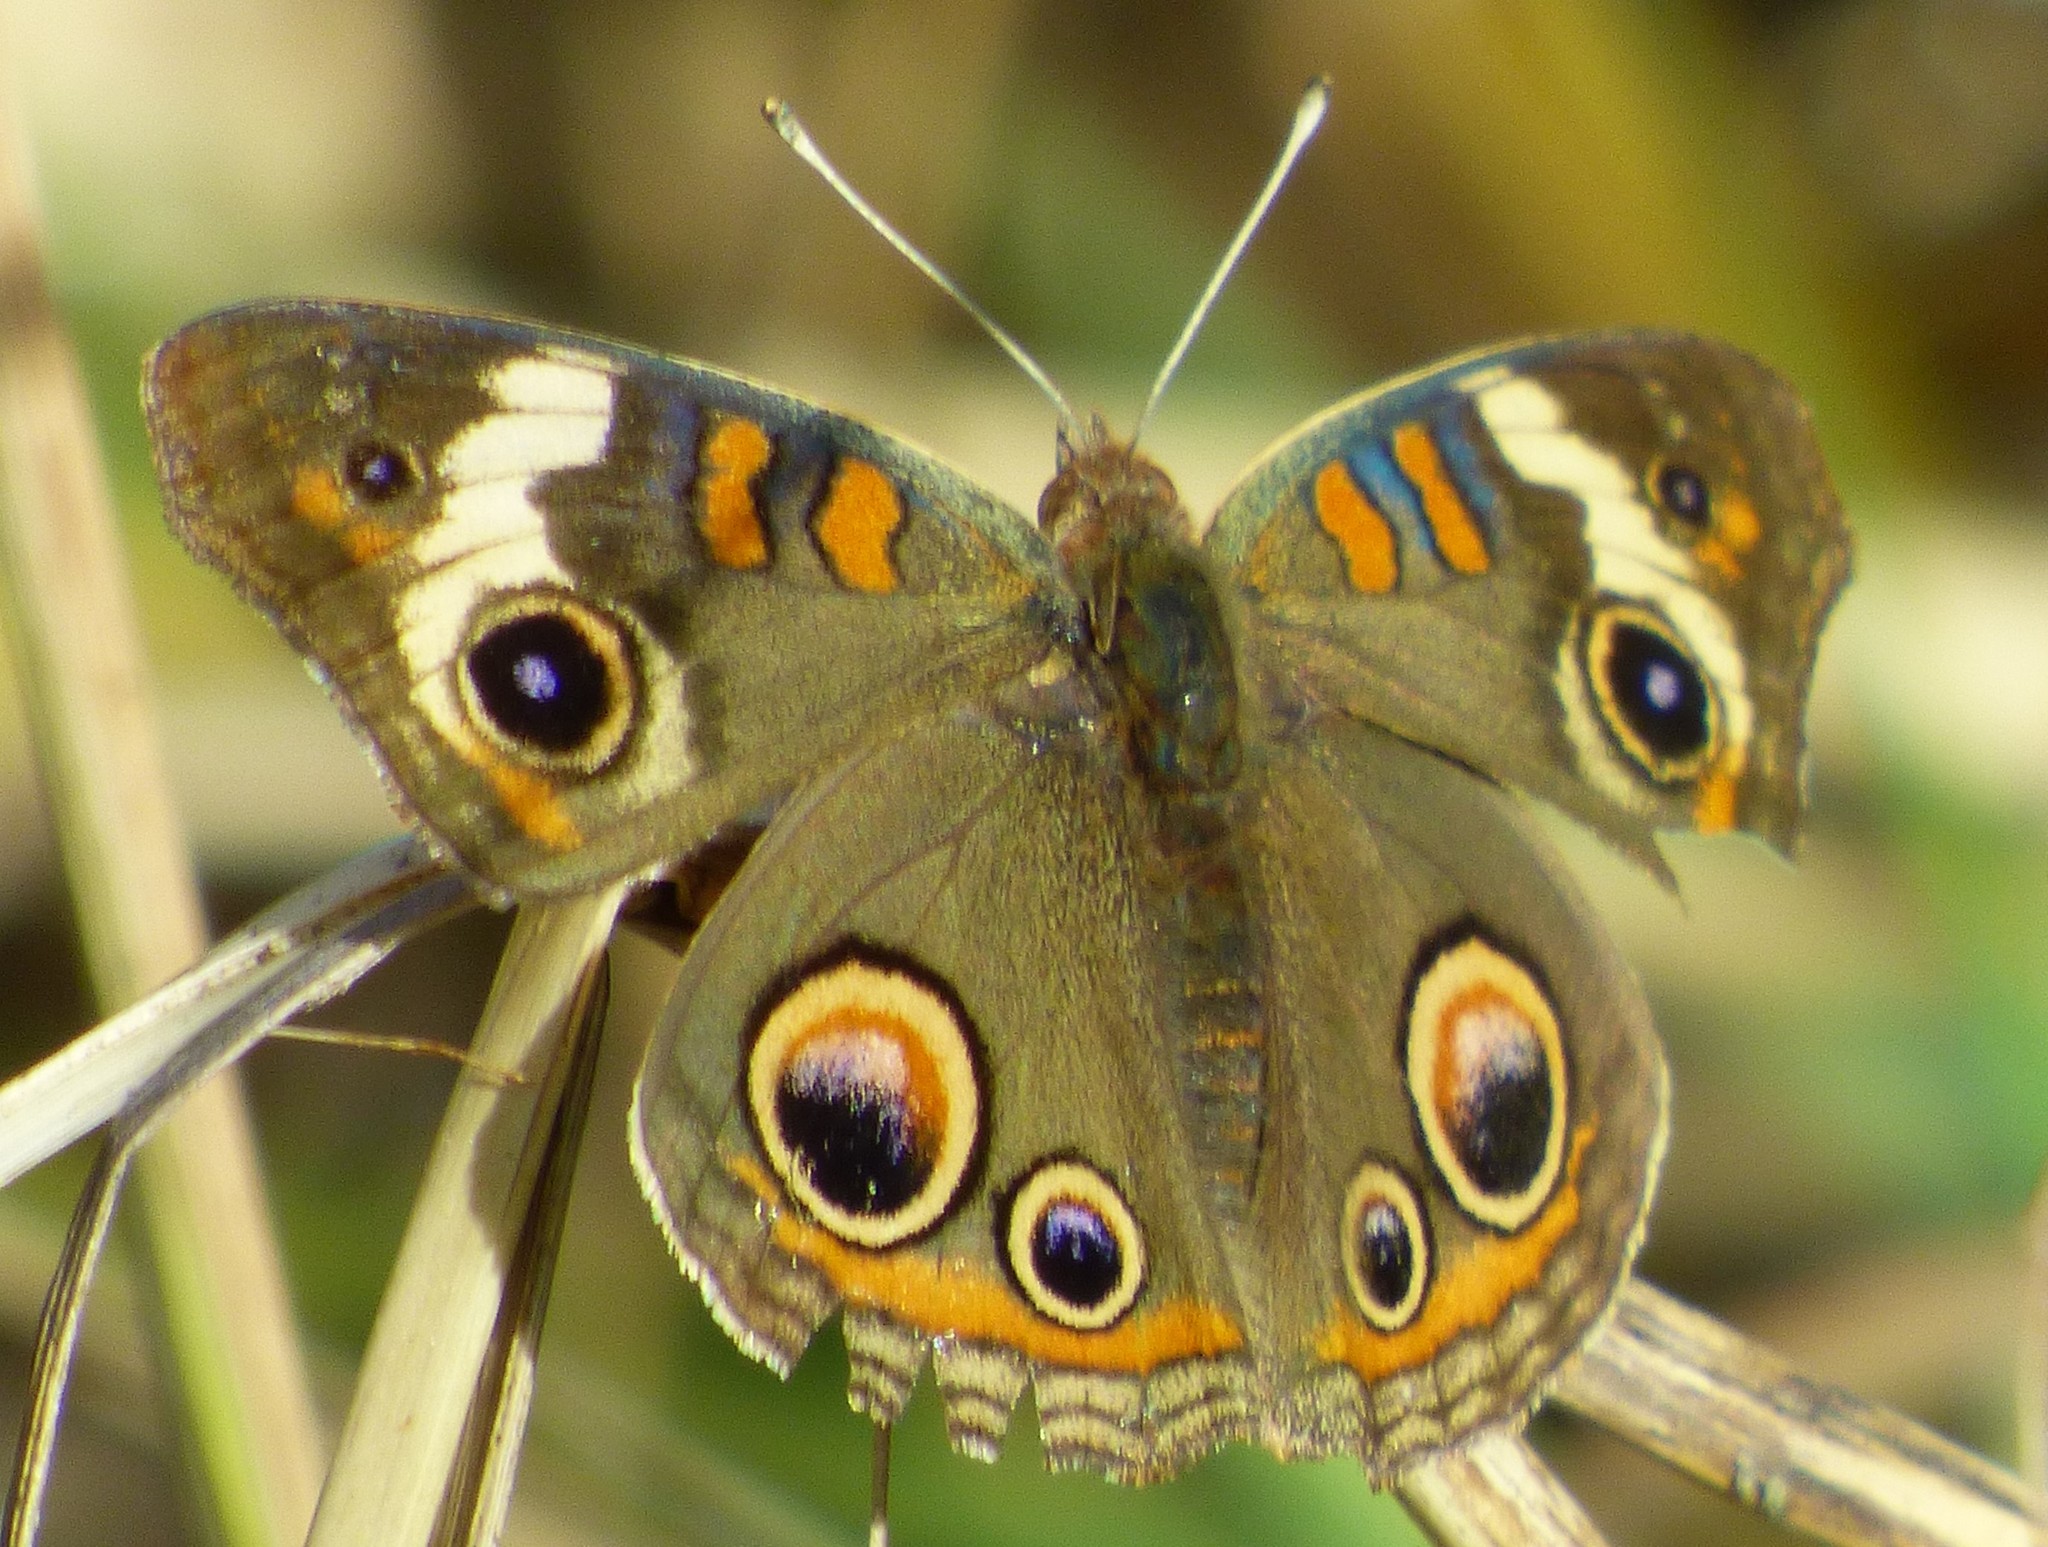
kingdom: Animalia
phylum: Arthropoda
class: Insecta
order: Lepidoptera
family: Nymphalidae
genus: Junonia
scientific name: Junonia coenia
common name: Common buckeye
